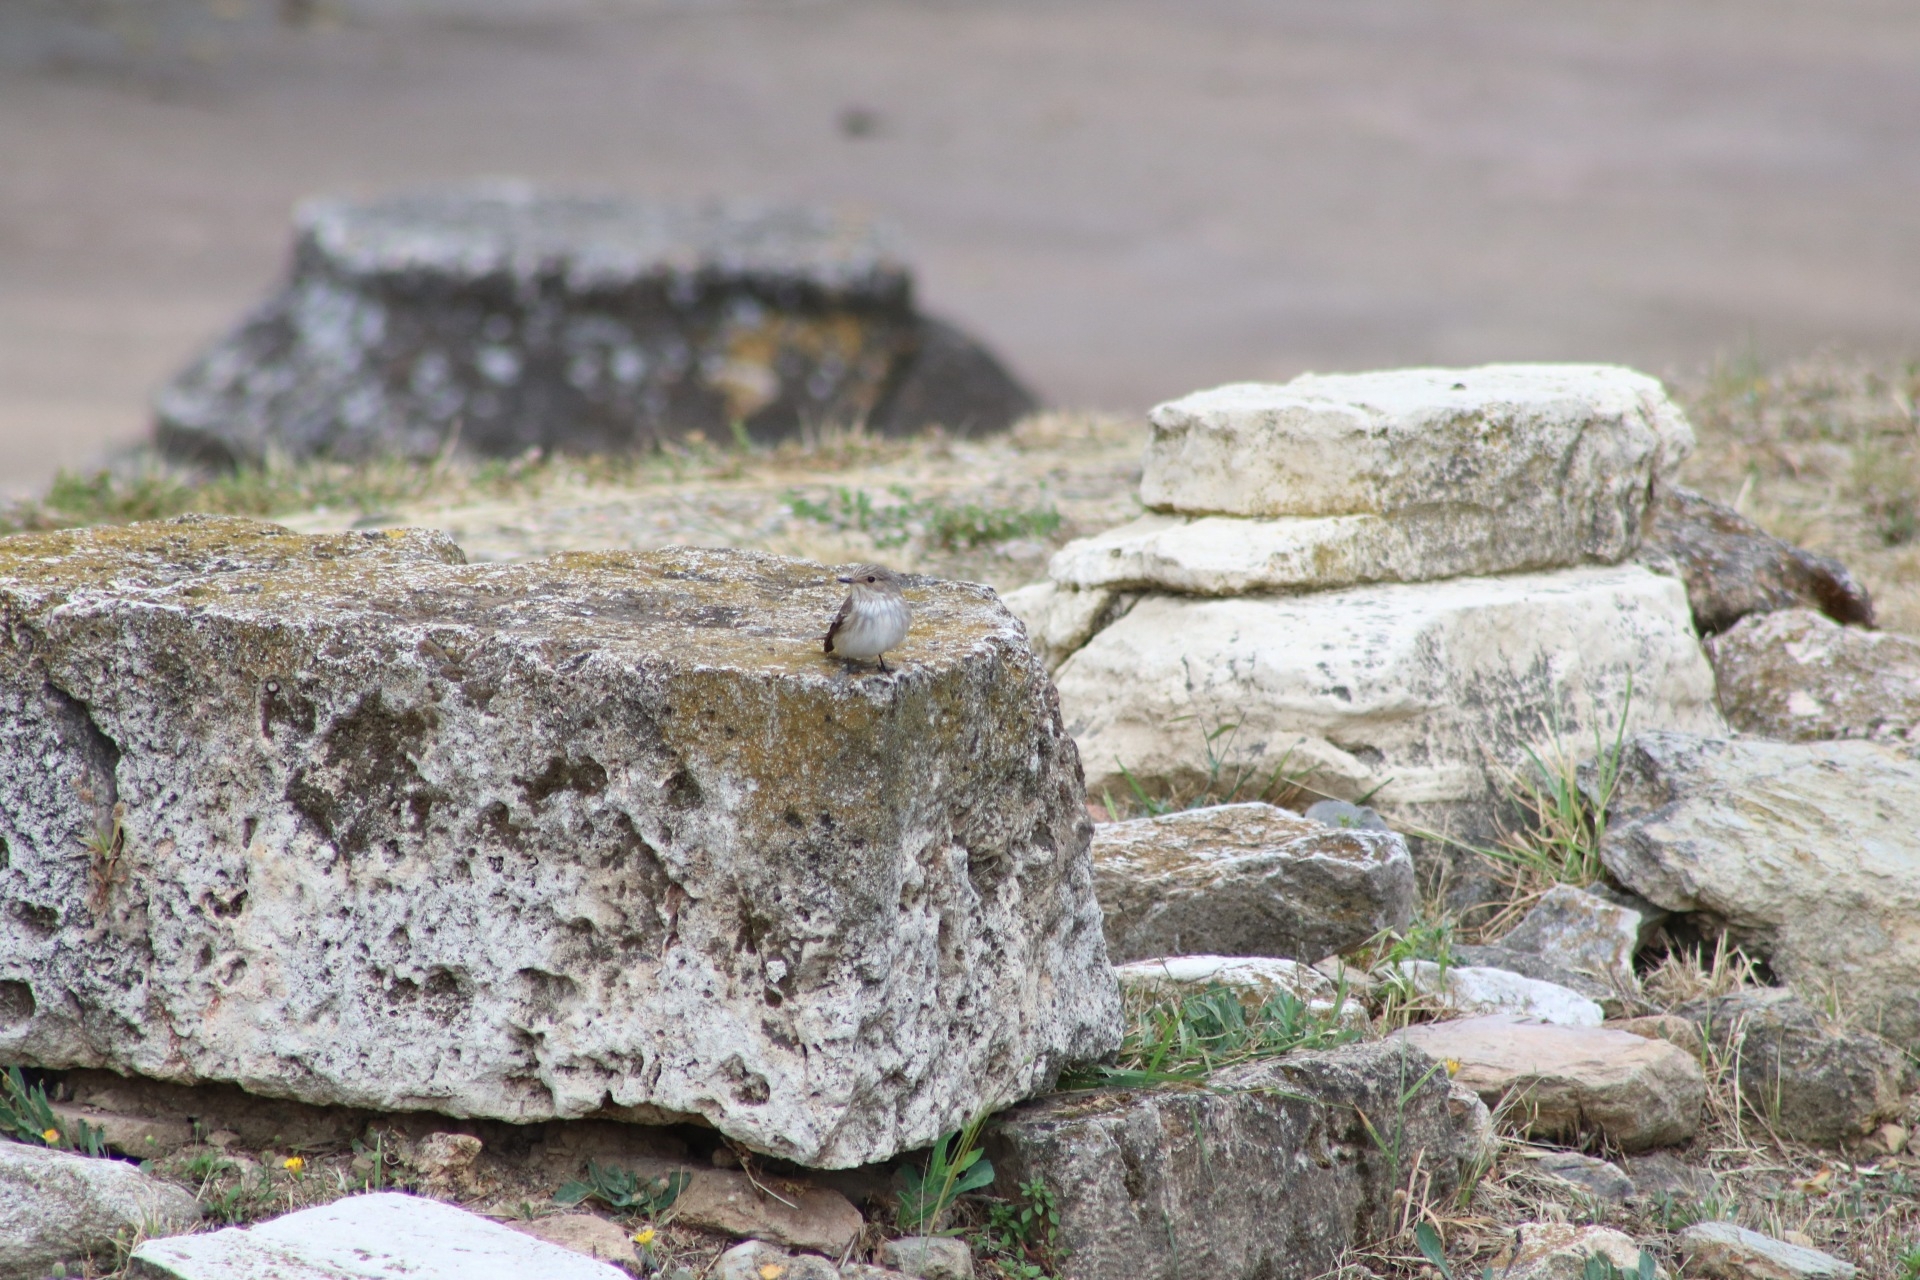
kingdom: Animalia
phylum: Chordata
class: Aves
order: Passeriformes
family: Muscicapidae
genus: Muscicapa
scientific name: Muscicapa striata
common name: Spotted flycatcher
